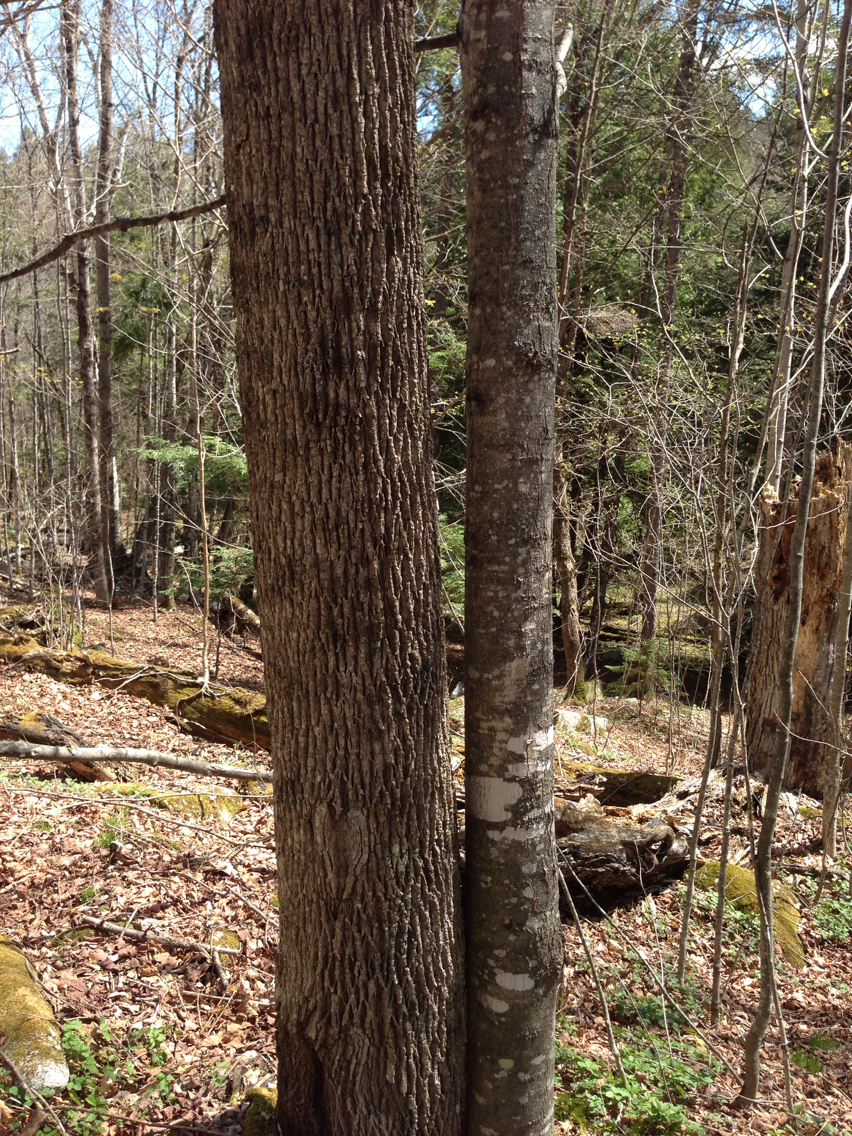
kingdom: Plantae
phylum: Tracheophyta
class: Magnoliopsida
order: Lamiales
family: Oleaceae
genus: Fraxinus
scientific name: Fraxinus americana
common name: White ash
